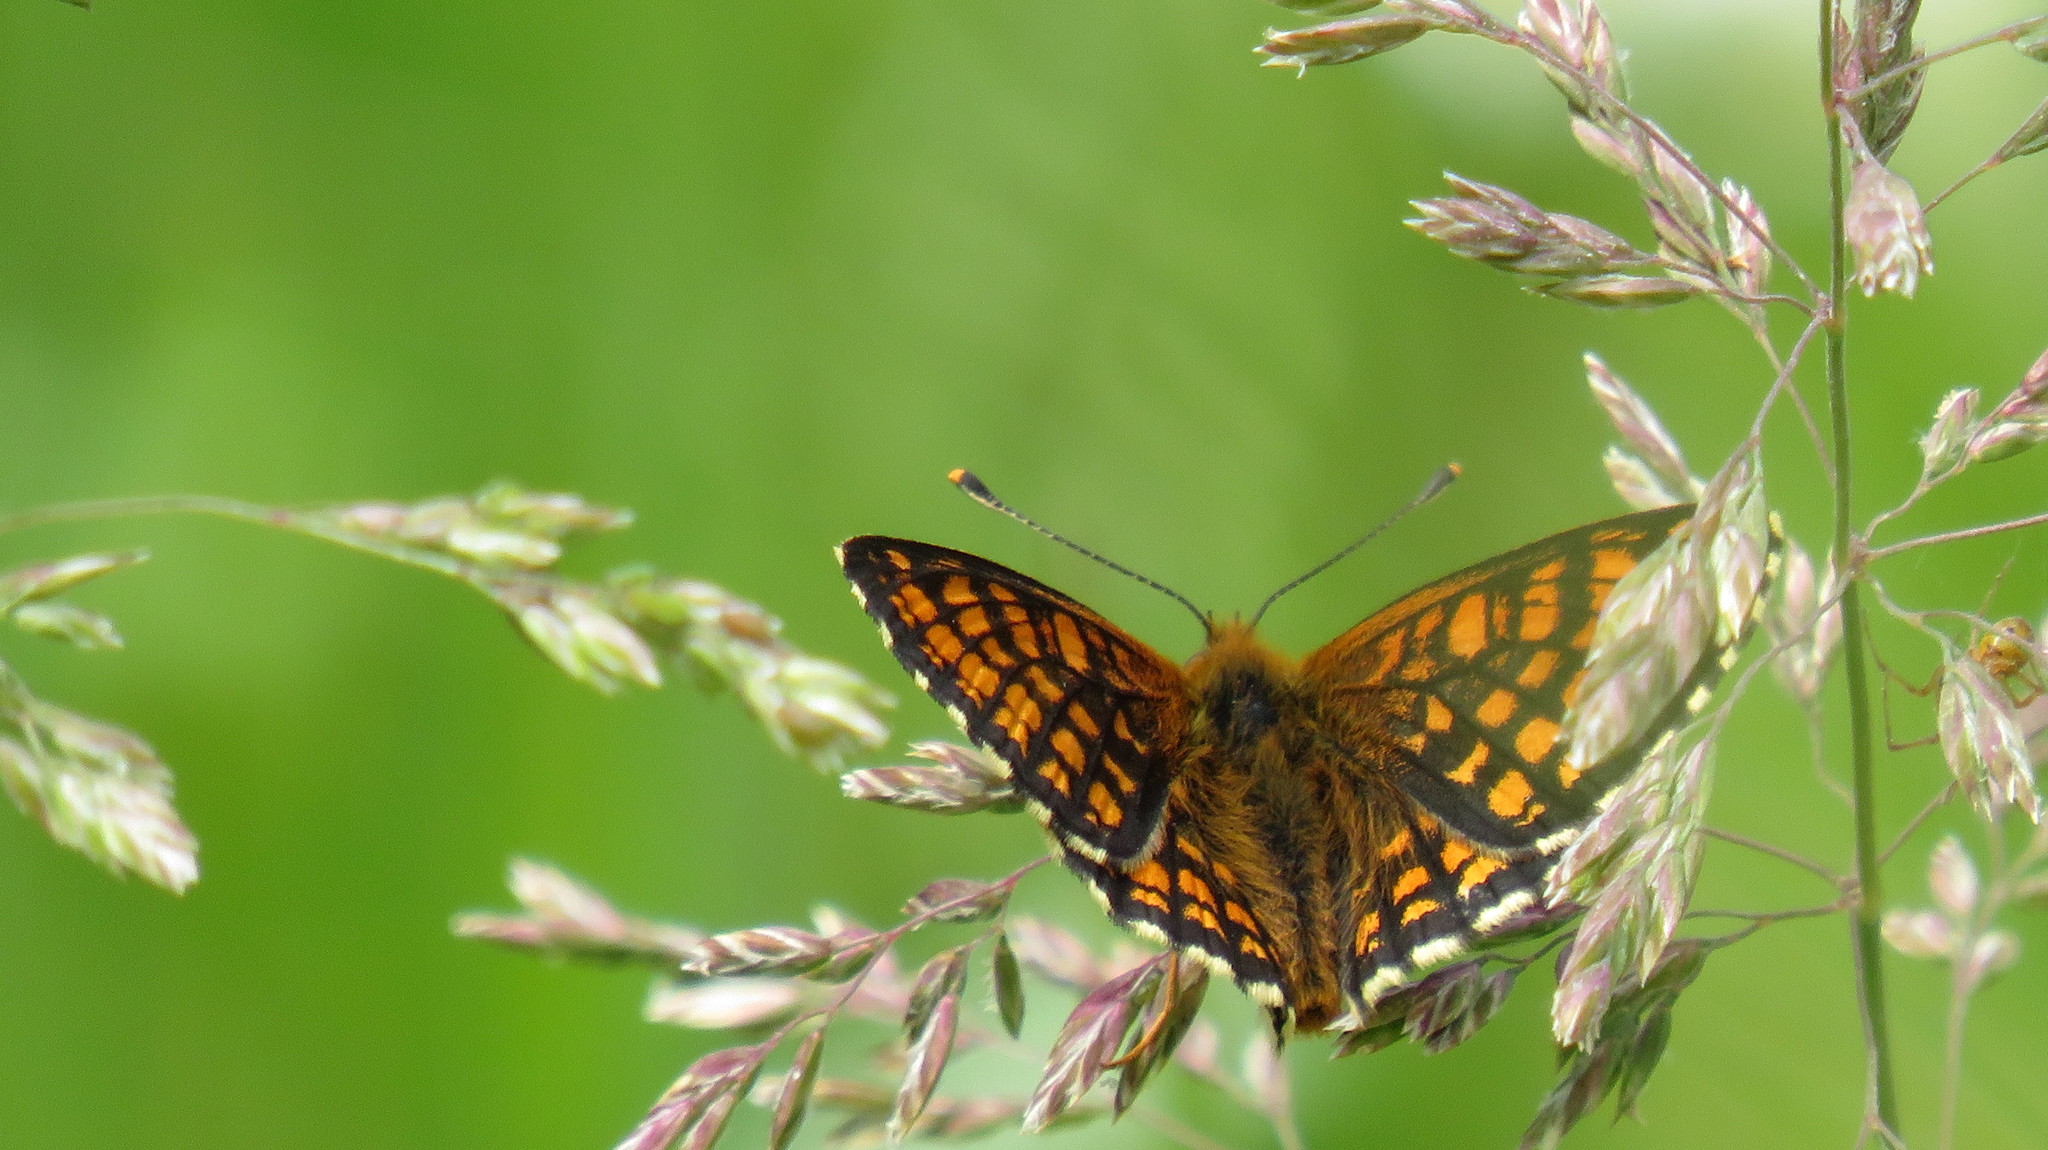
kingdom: Animalia
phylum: Arthropoda
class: Insecta
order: Lepidoptera
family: Nymphalidae
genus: Melitaea
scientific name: Melitaea athalia
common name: Heath fritillary
